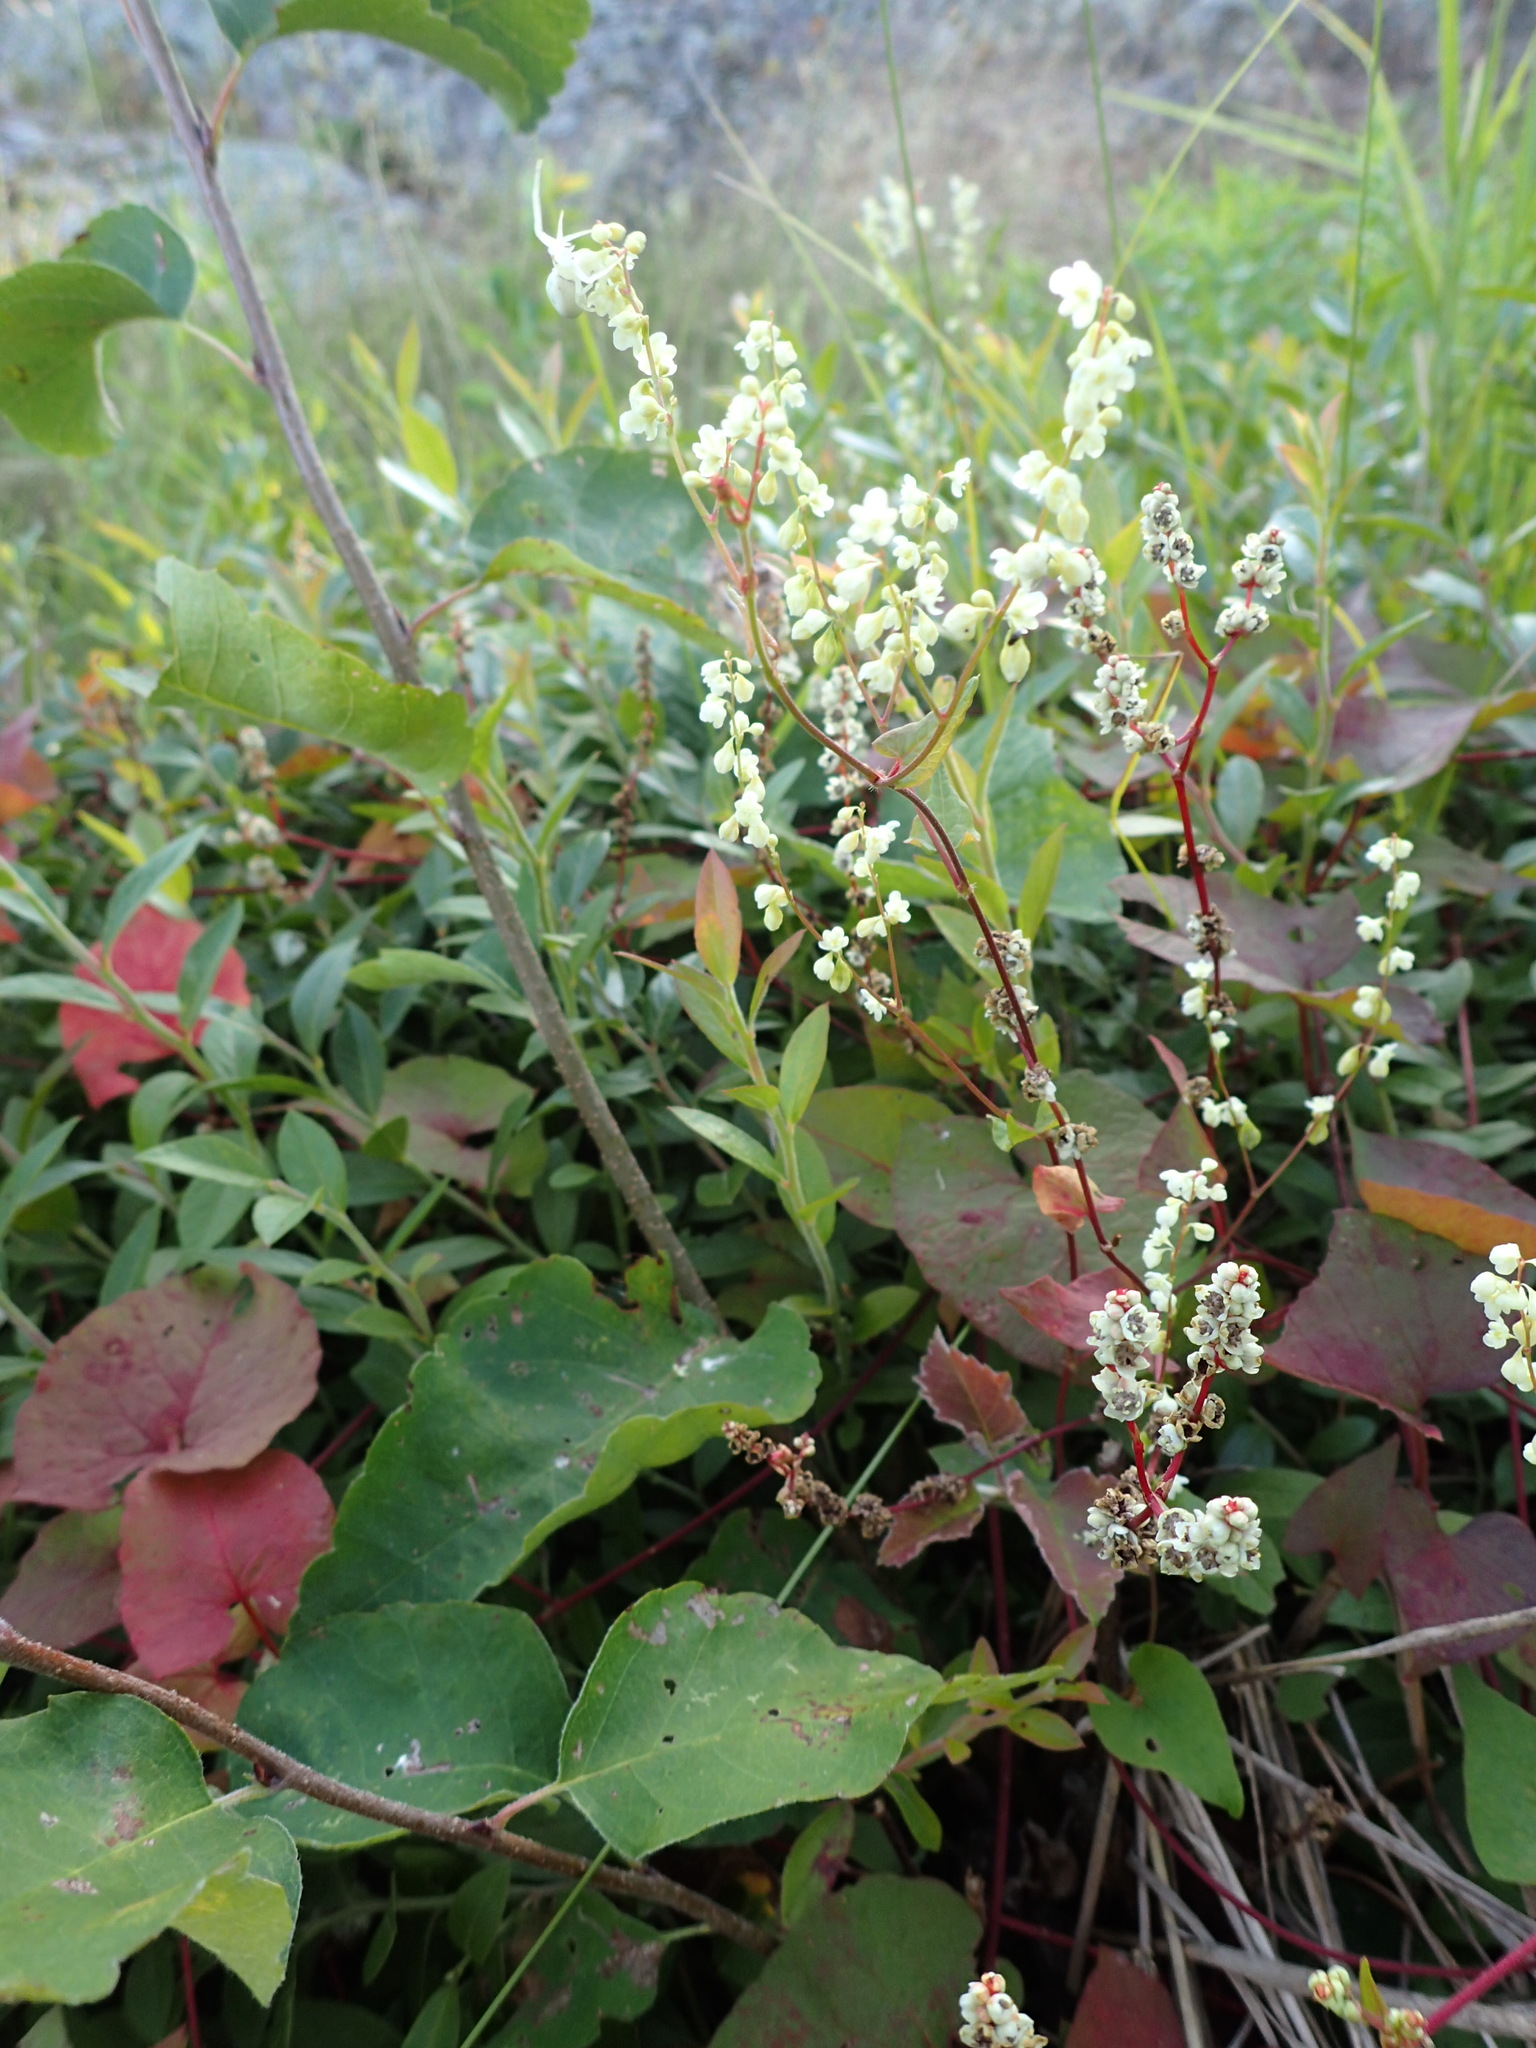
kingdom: Plantae
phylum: Tracheophyta
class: Magnoliopsida
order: Caryophyllales
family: Polygonaceae
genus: Parogonum
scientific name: Parogonum ciliinode
